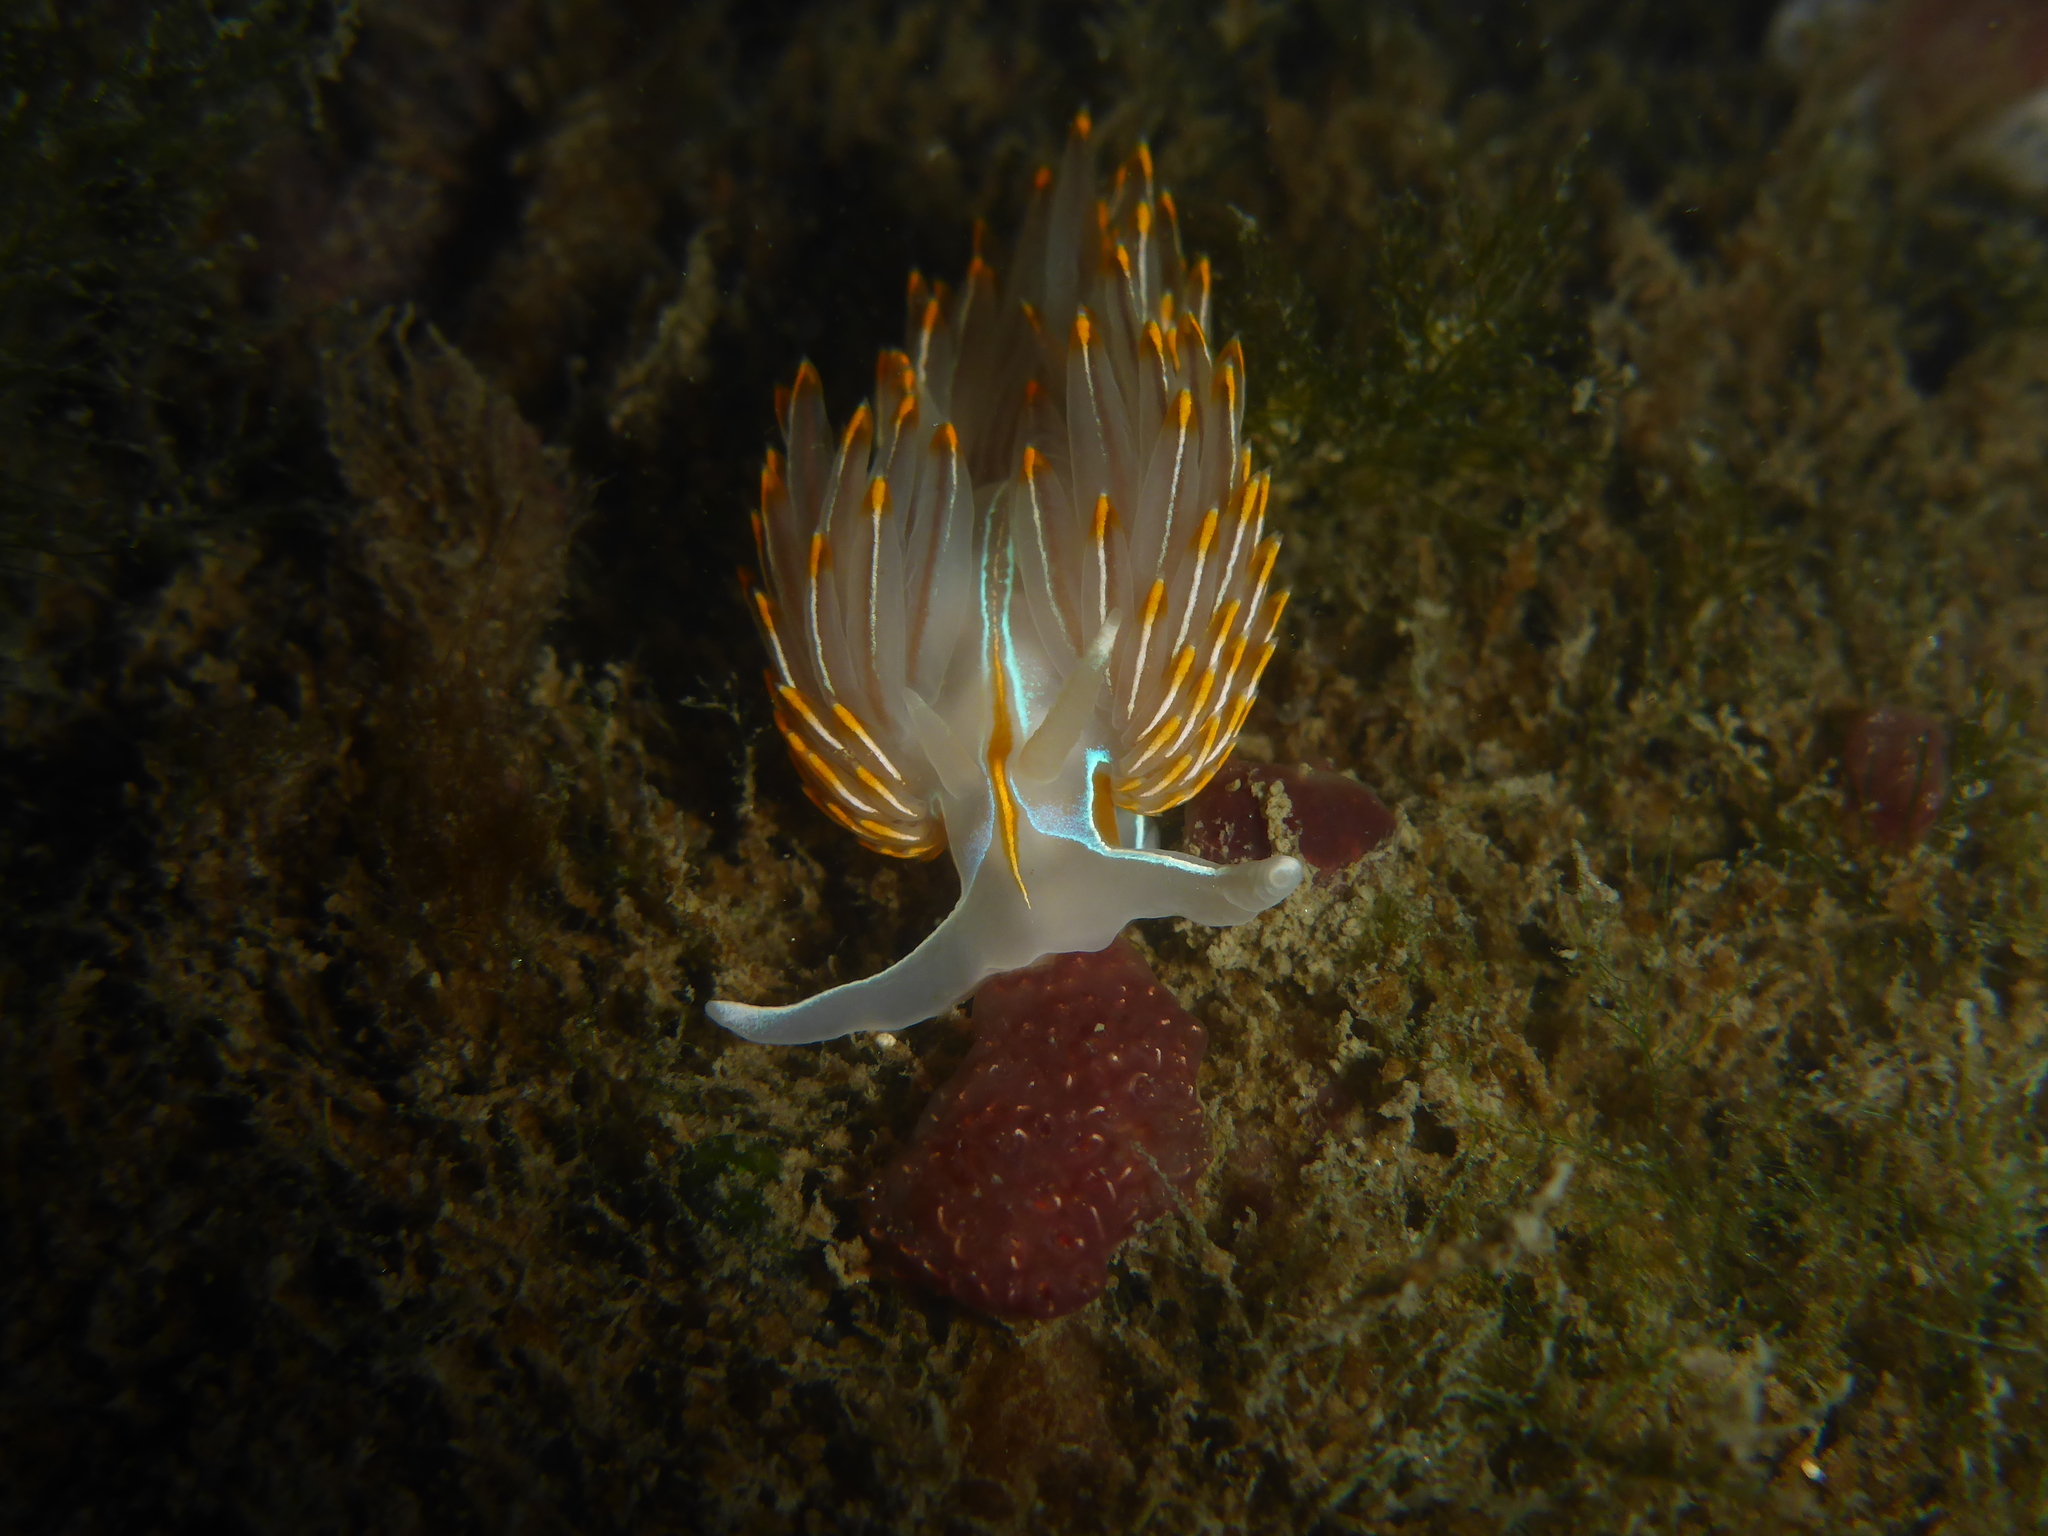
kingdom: Animalia
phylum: Mollusca
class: Gastropoda
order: Nudibranchia
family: Myrrhinidae
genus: Hermissenda
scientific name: Hermissenda crassicornis
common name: Hermissenda
